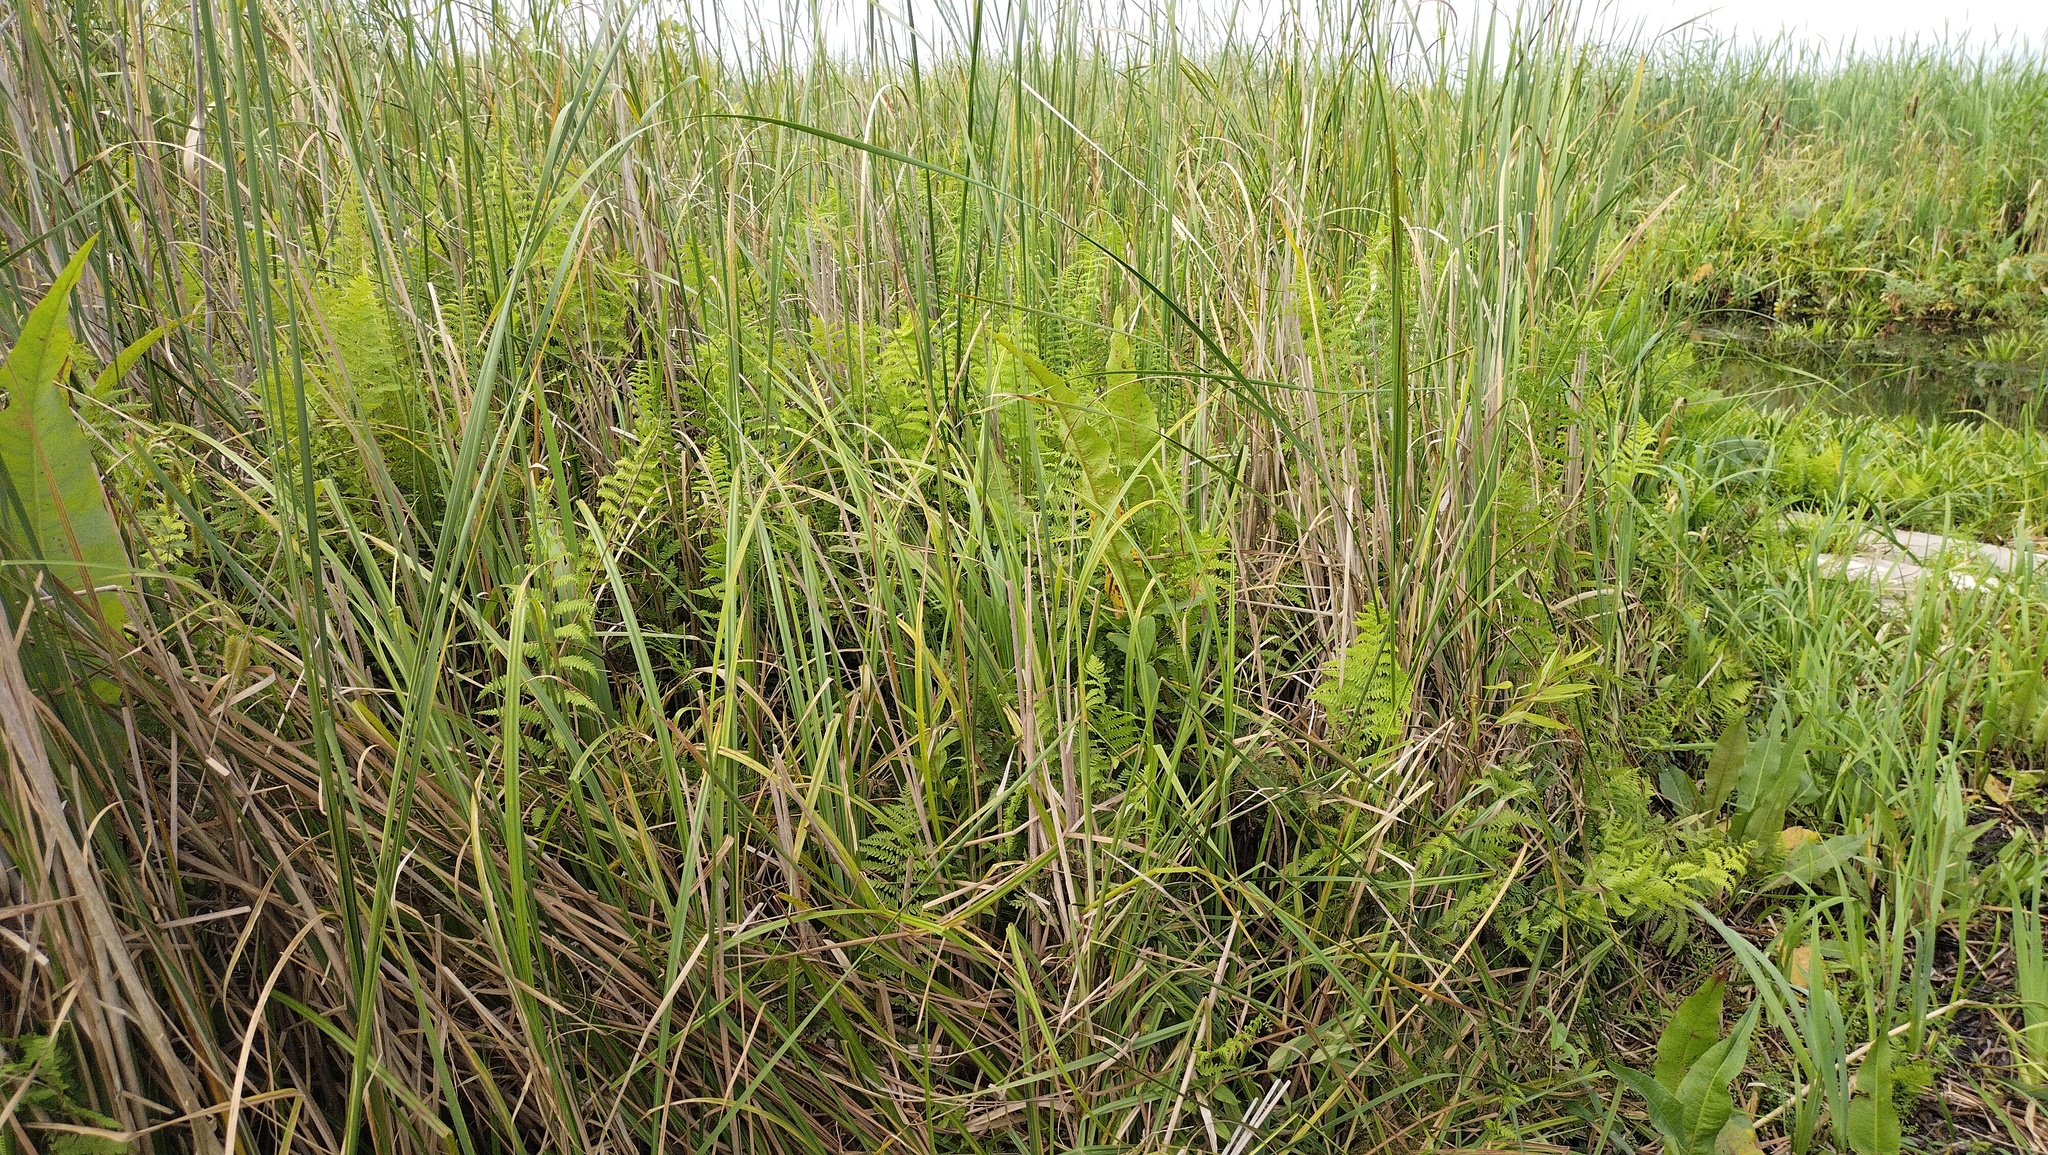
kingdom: Plantae
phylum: Tracheophyta
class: Polypodiopsida
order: Polypodiales
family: Thelypteridaceae
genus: Thelypteris
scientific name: Thelypteris palustris
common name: Marsh fern
